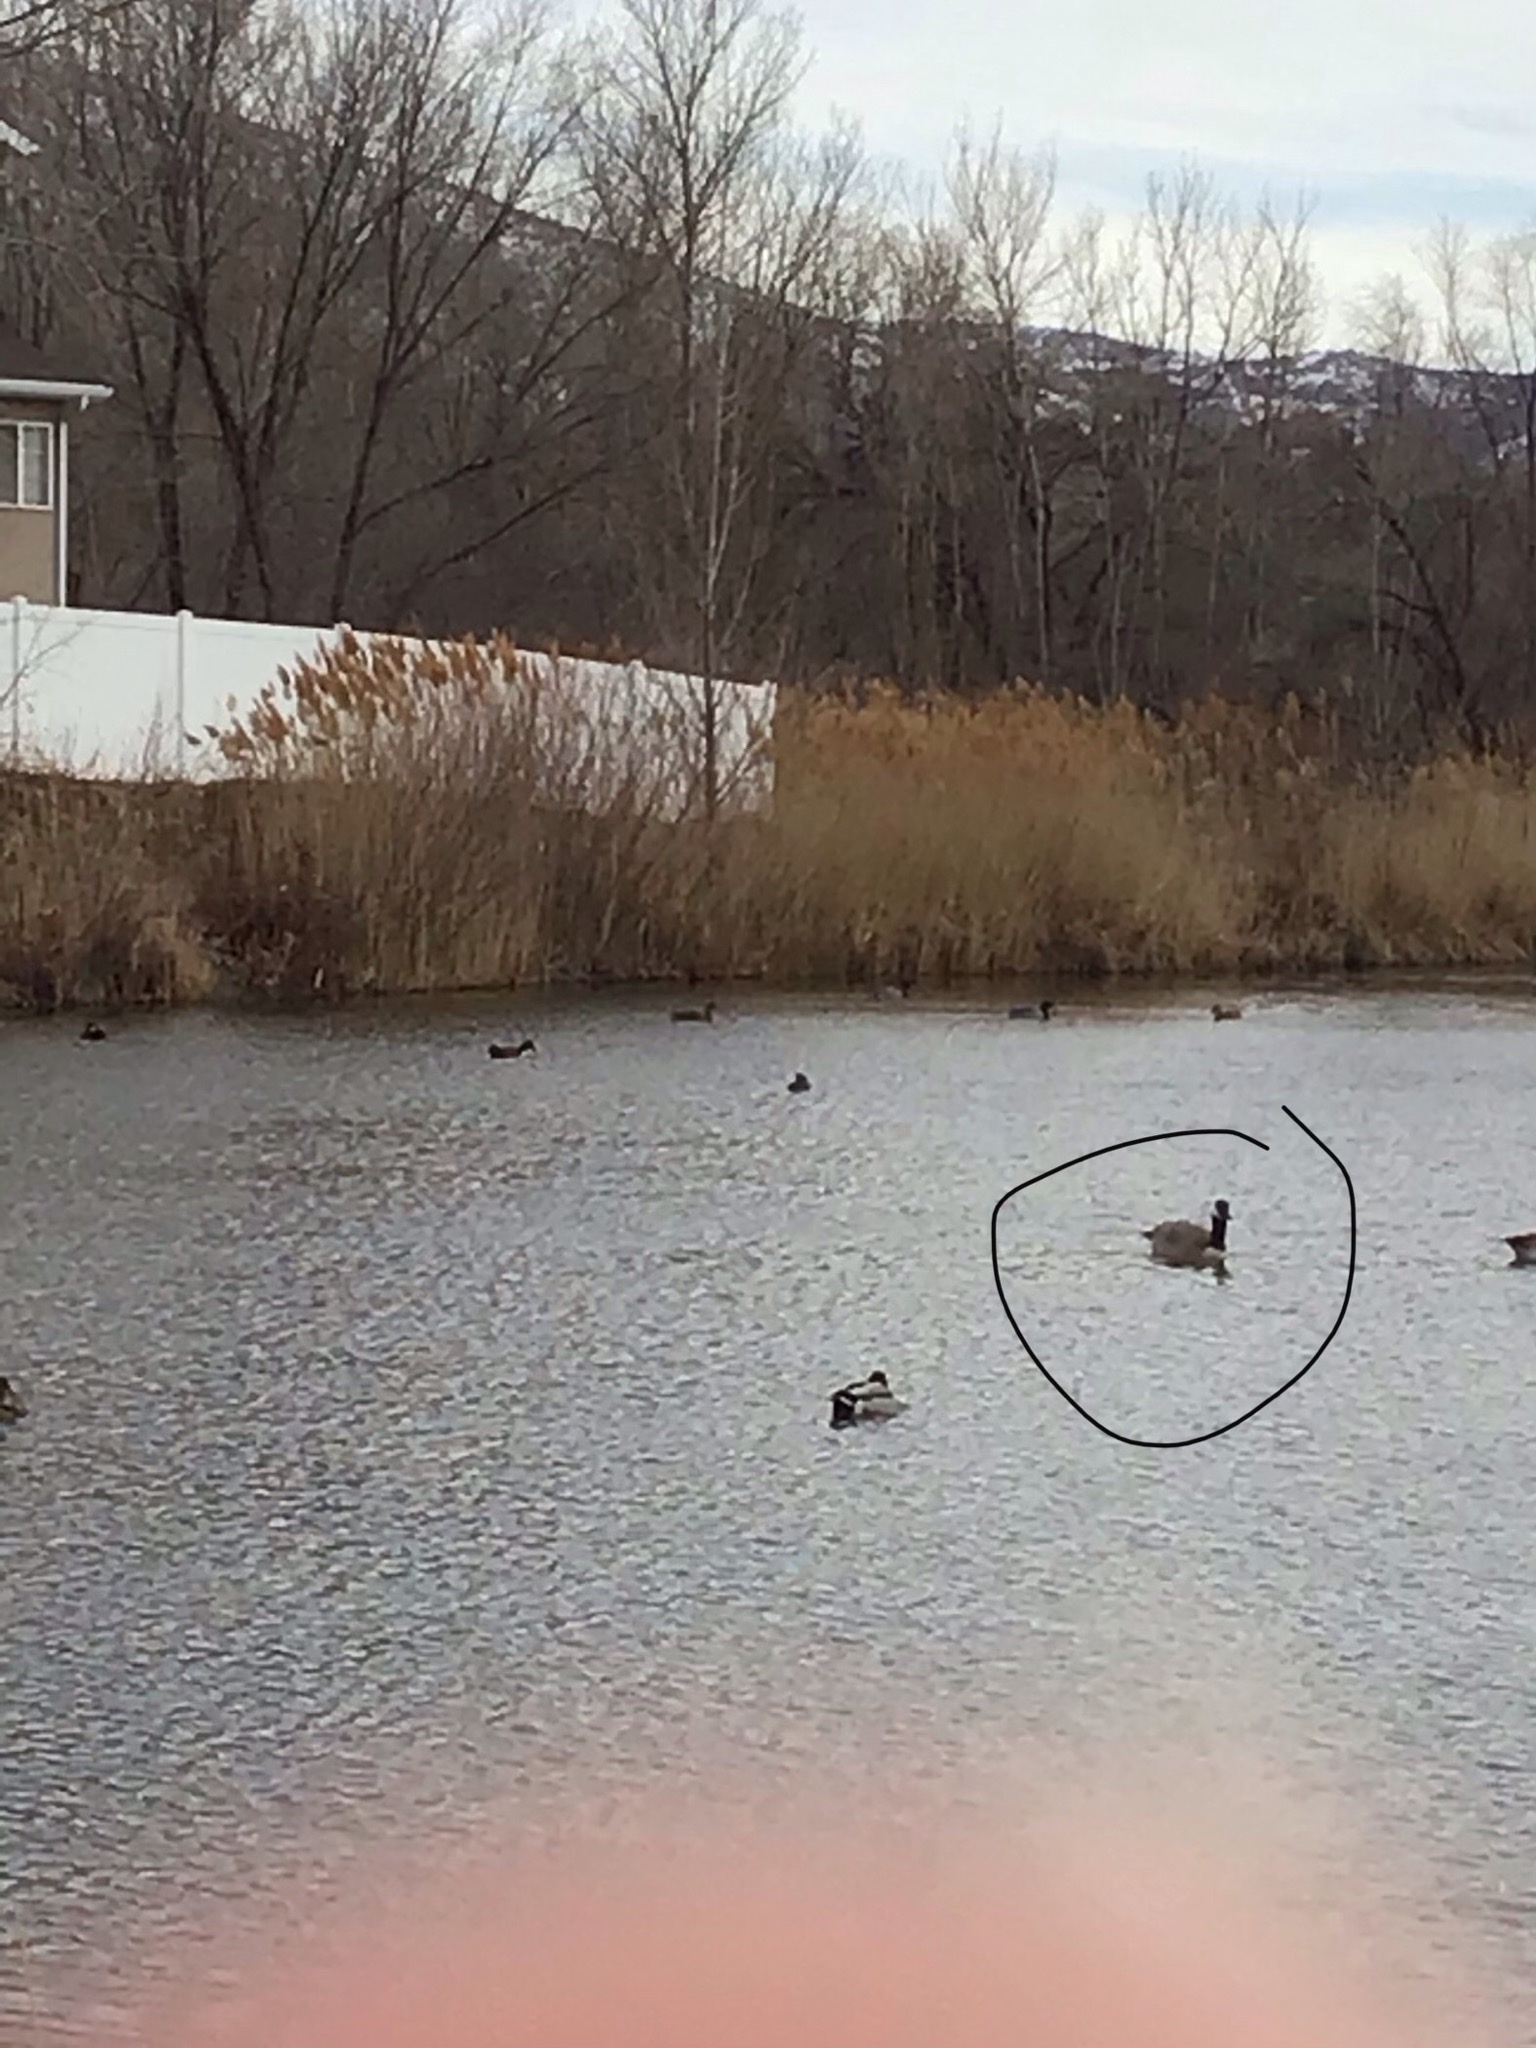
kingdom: Animalia
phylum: Chordata
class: Aves
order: Anseriformes
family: Anatidae
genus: Branta
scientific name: Branta canadensis
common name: Canada goose
